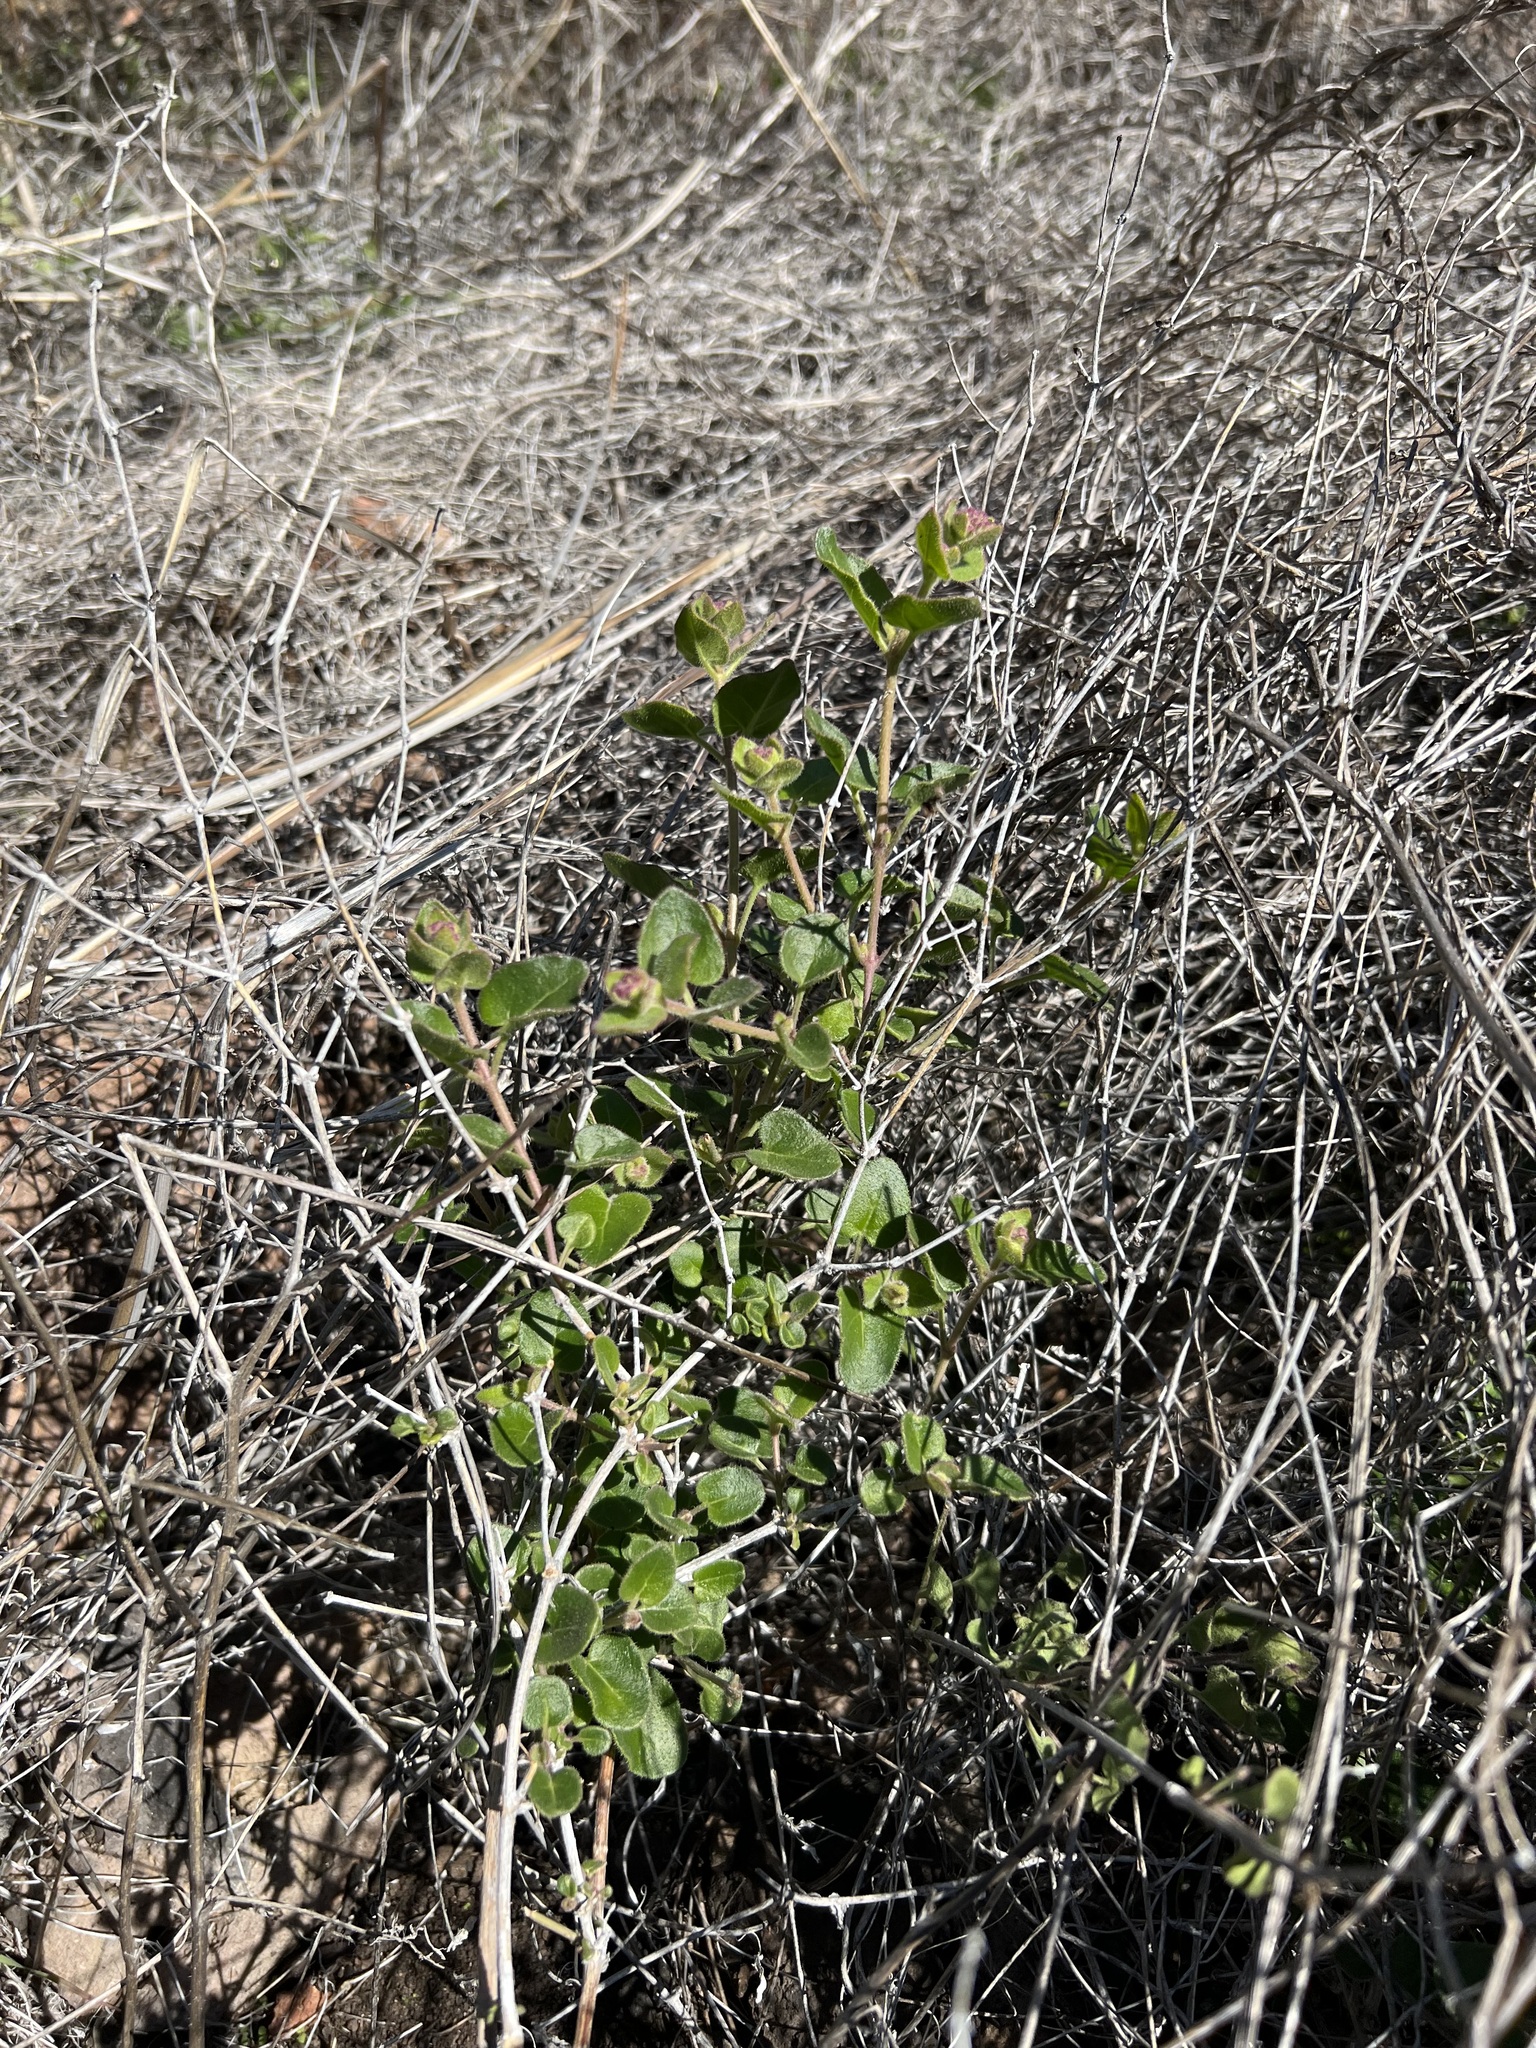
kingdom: Plantae
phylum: Tracheophyta
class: Magnoliopsida
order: Caryophyllales
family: Nyctaginaceae
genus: Mirabilis
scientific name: Mirabilis laevis
